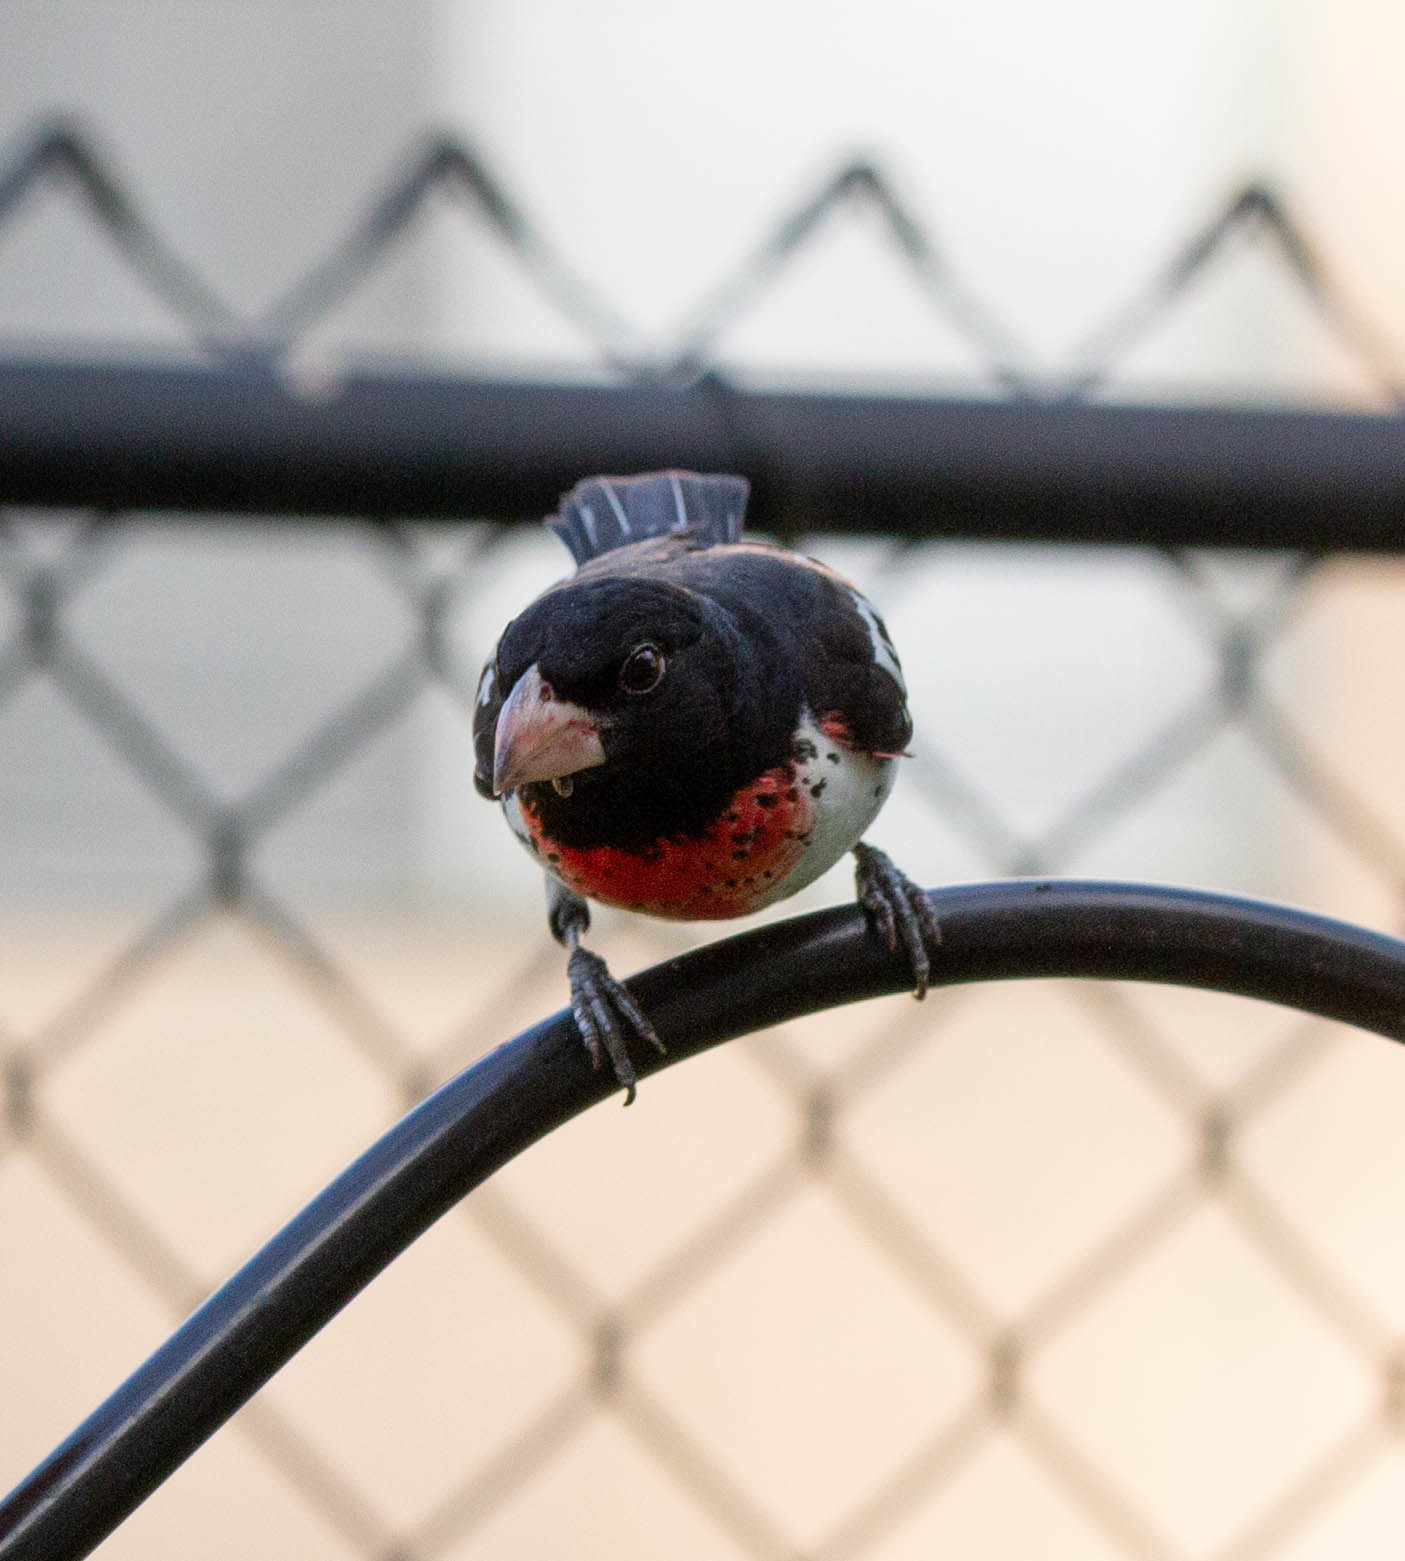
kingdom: Animalia
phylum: Chordata
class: Aves
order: Passeriformes
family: Cardinalidae
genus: Pheucticus
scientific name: Pheucticus ludovicianus
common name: Rose-breasted grosbeak
